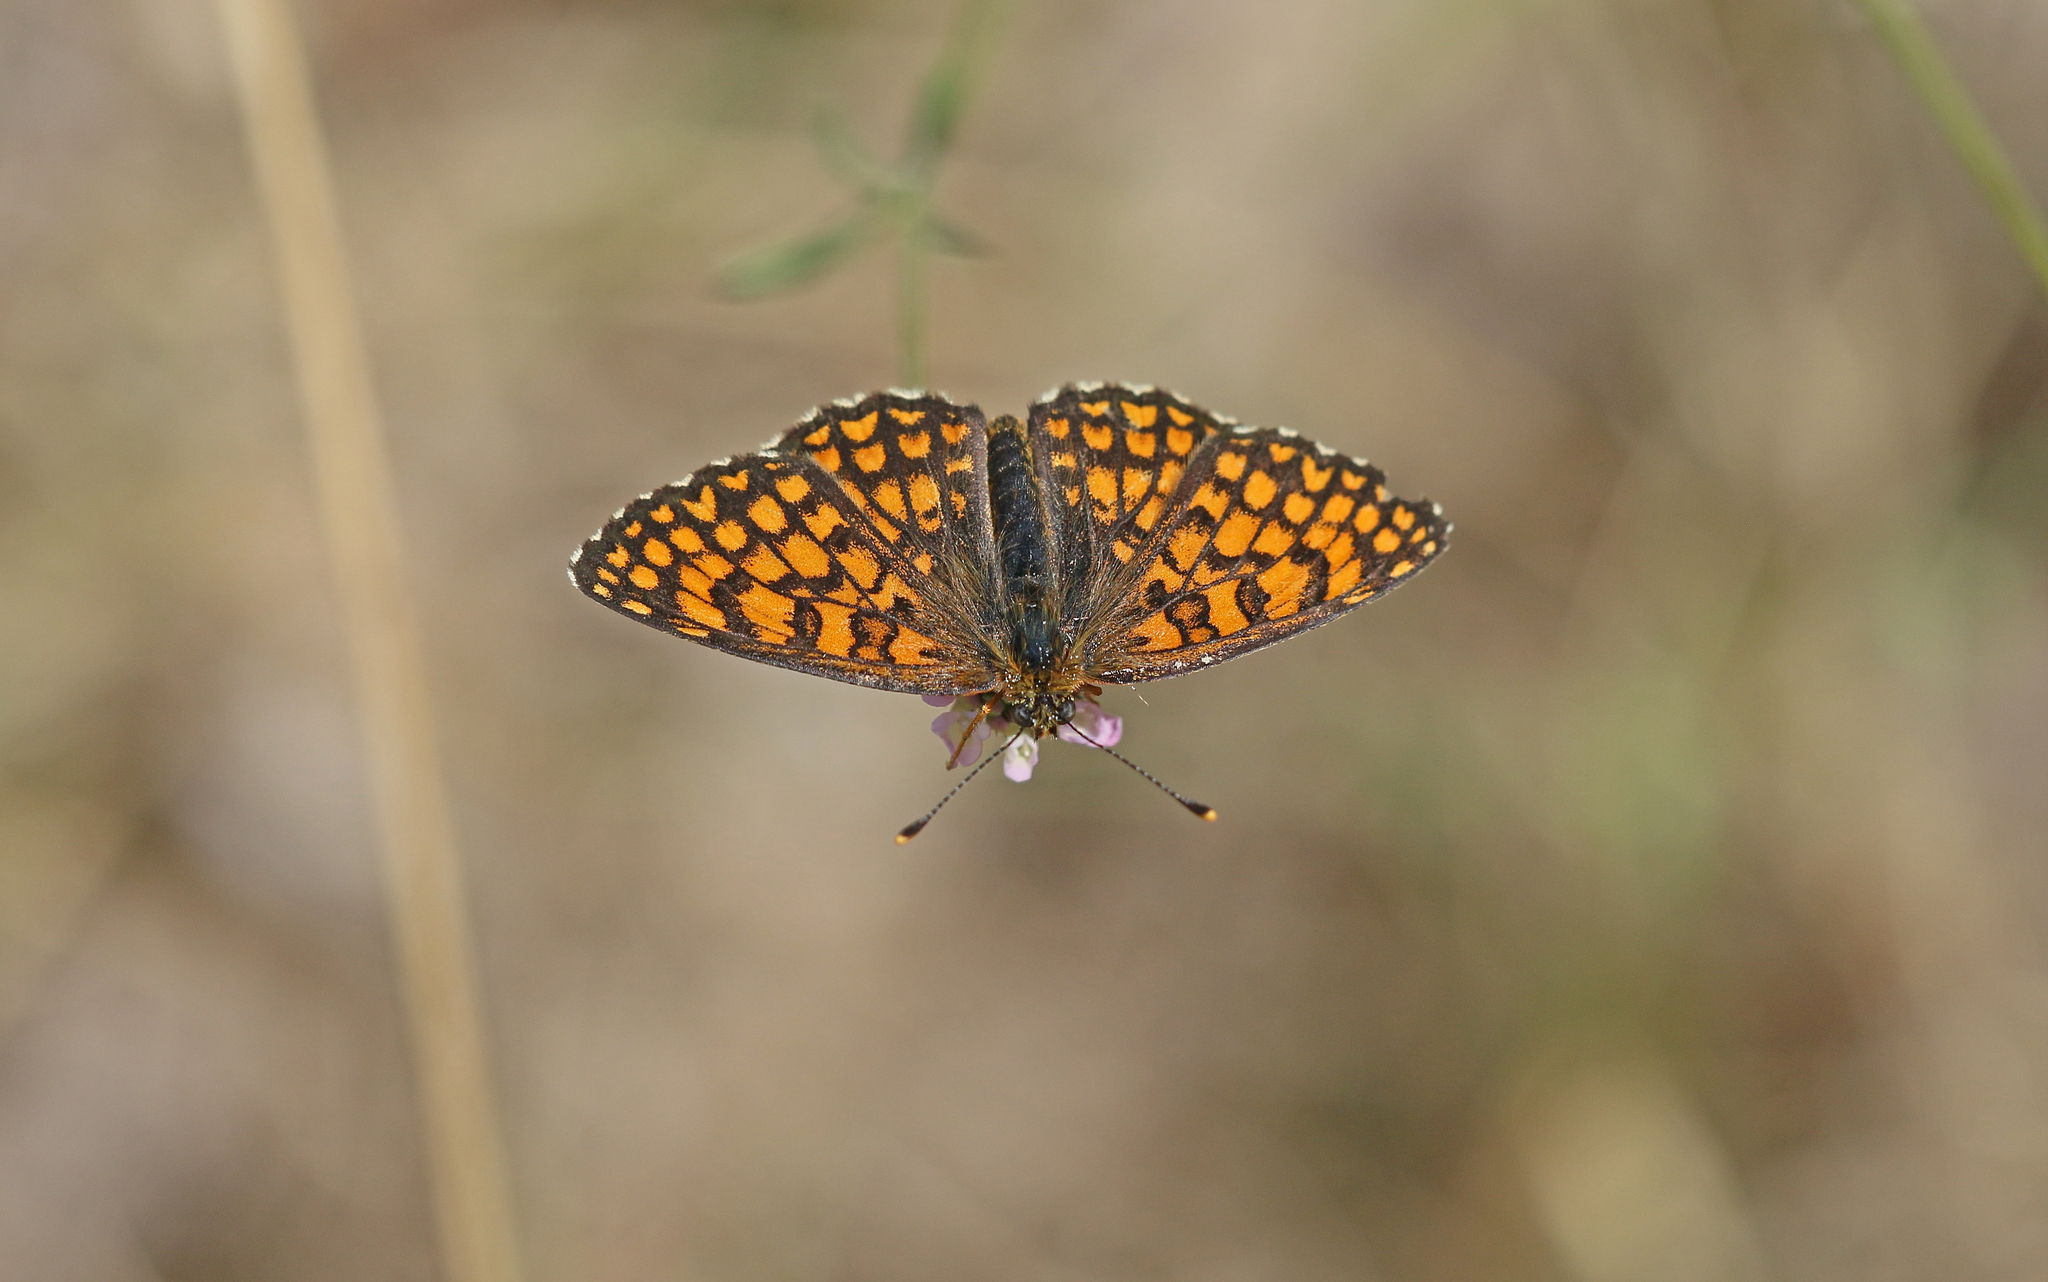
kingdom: Animalia
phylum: Arthropoda
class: Insecta
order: Lepidoptera
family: Nymphalidae
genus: Mellicta
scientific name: Mellicta athalia
